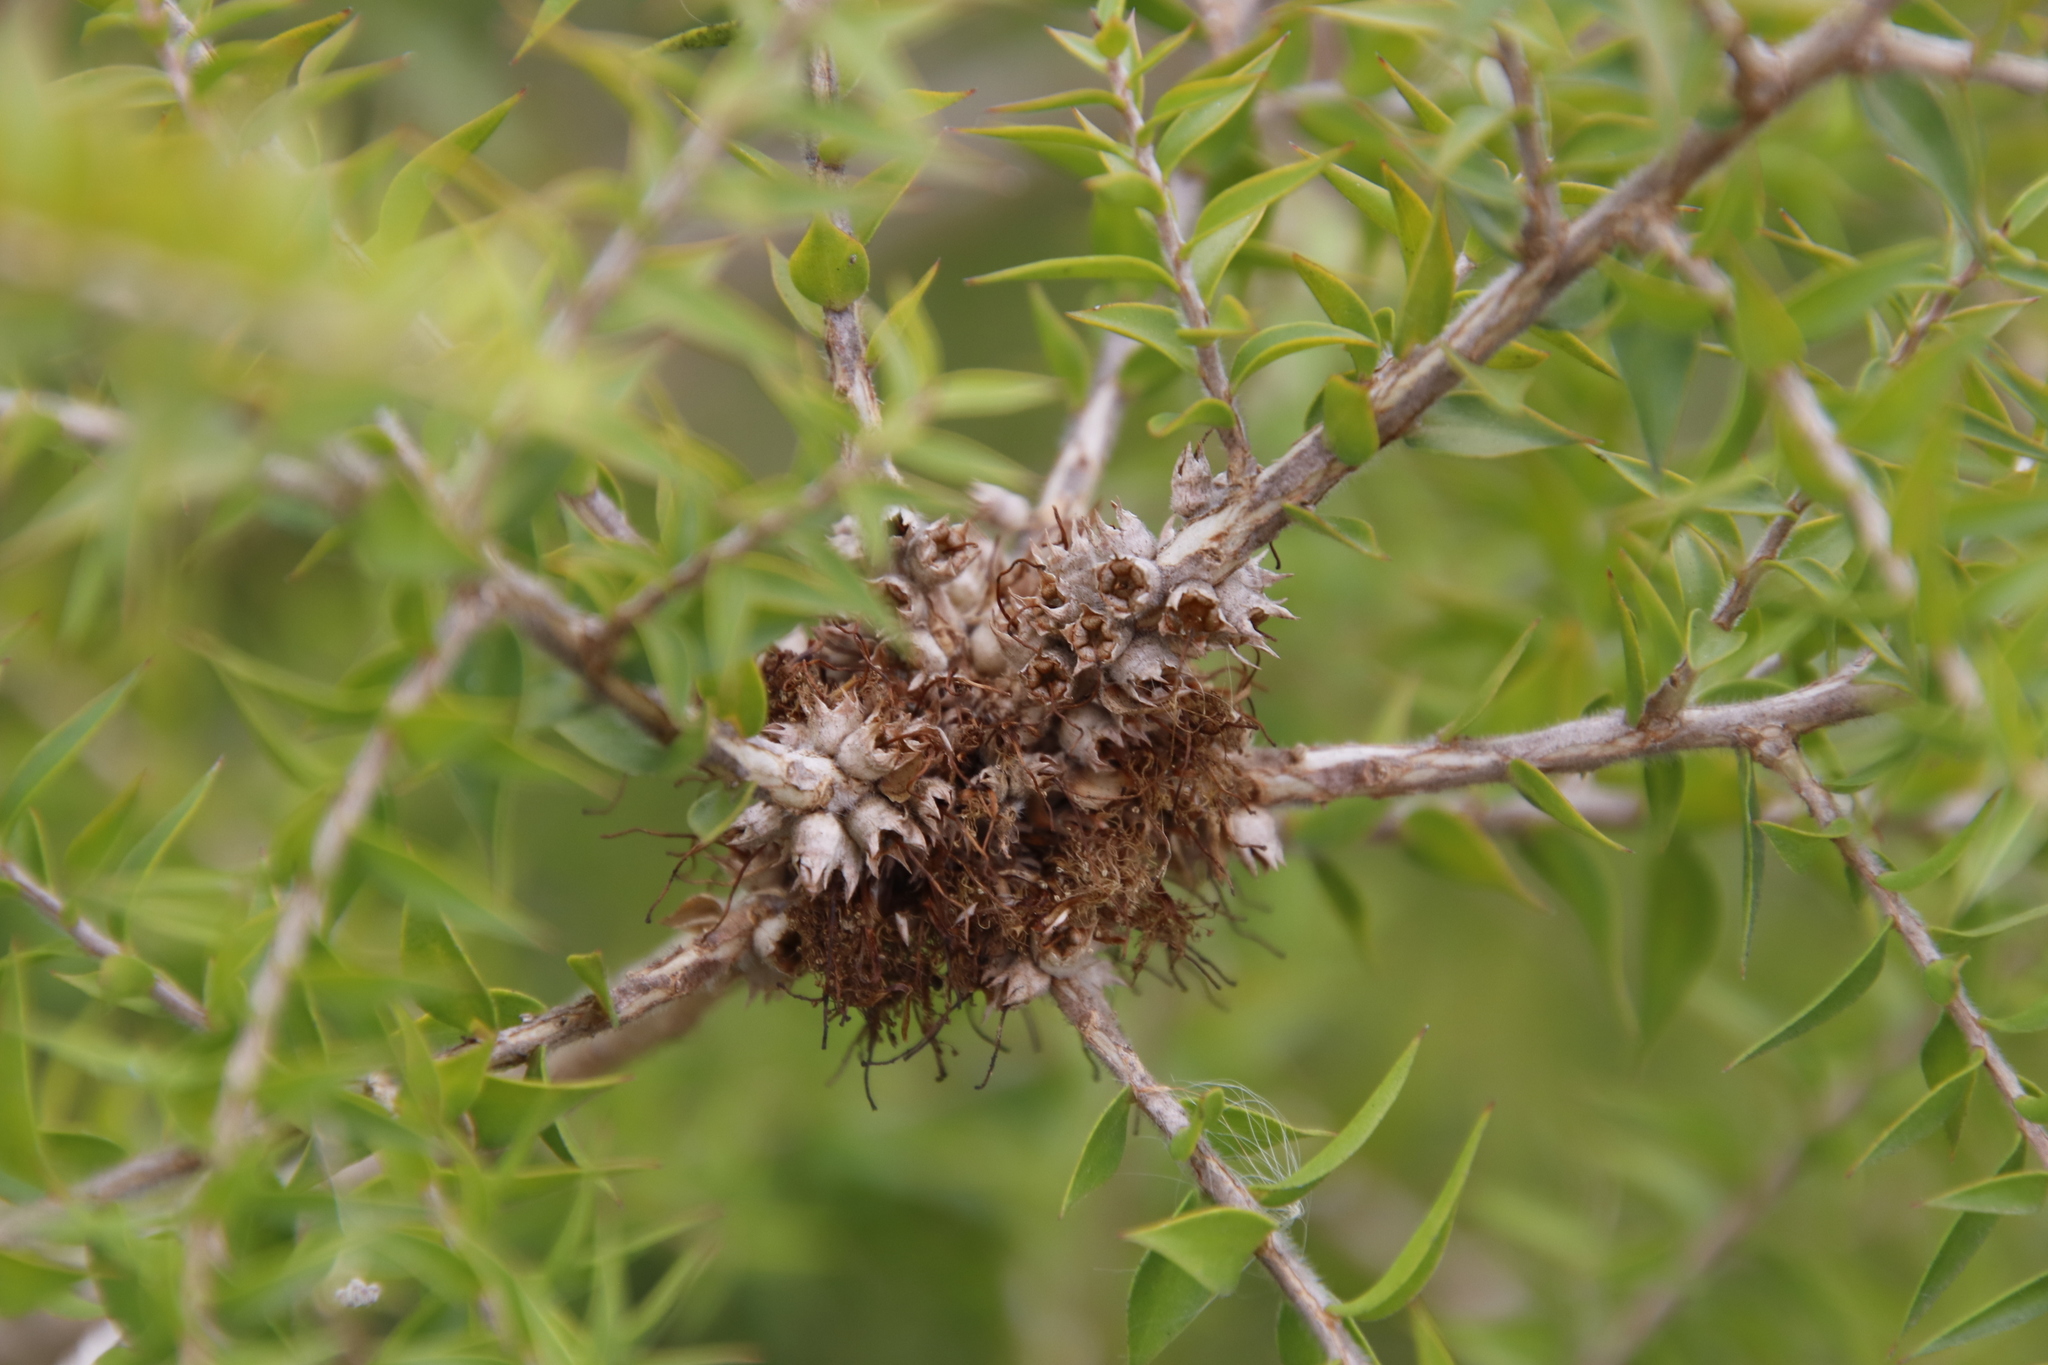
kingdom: Plantae
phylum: Tracheophyta
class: Magnoliopsida
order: Myrtales
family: Myrtaceae
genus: Melaleuca
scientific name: Melaleuca styphelioides
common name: Prickly paperbark
